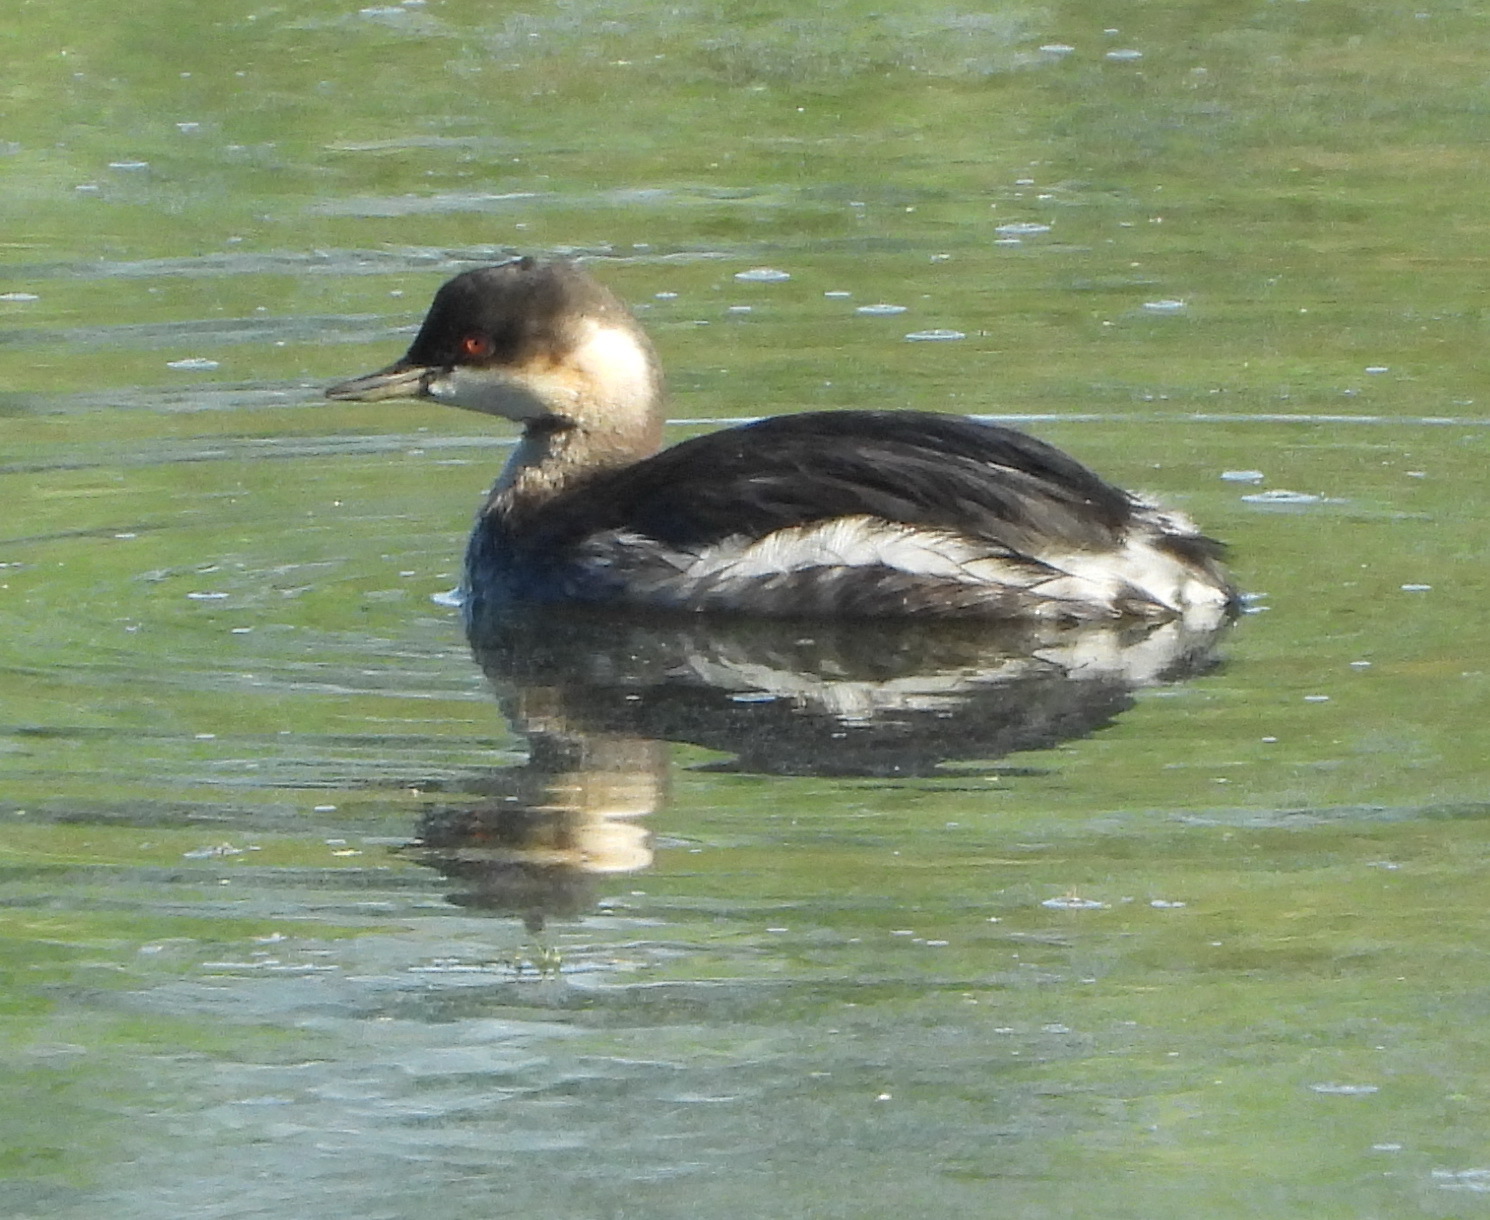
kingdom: Animalia
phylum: Chordata
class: Aves
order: Podicipediformes
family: Podicipedidae
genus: Podiceps
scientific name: Podiceps nigricollis
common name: Black-necked grebe
